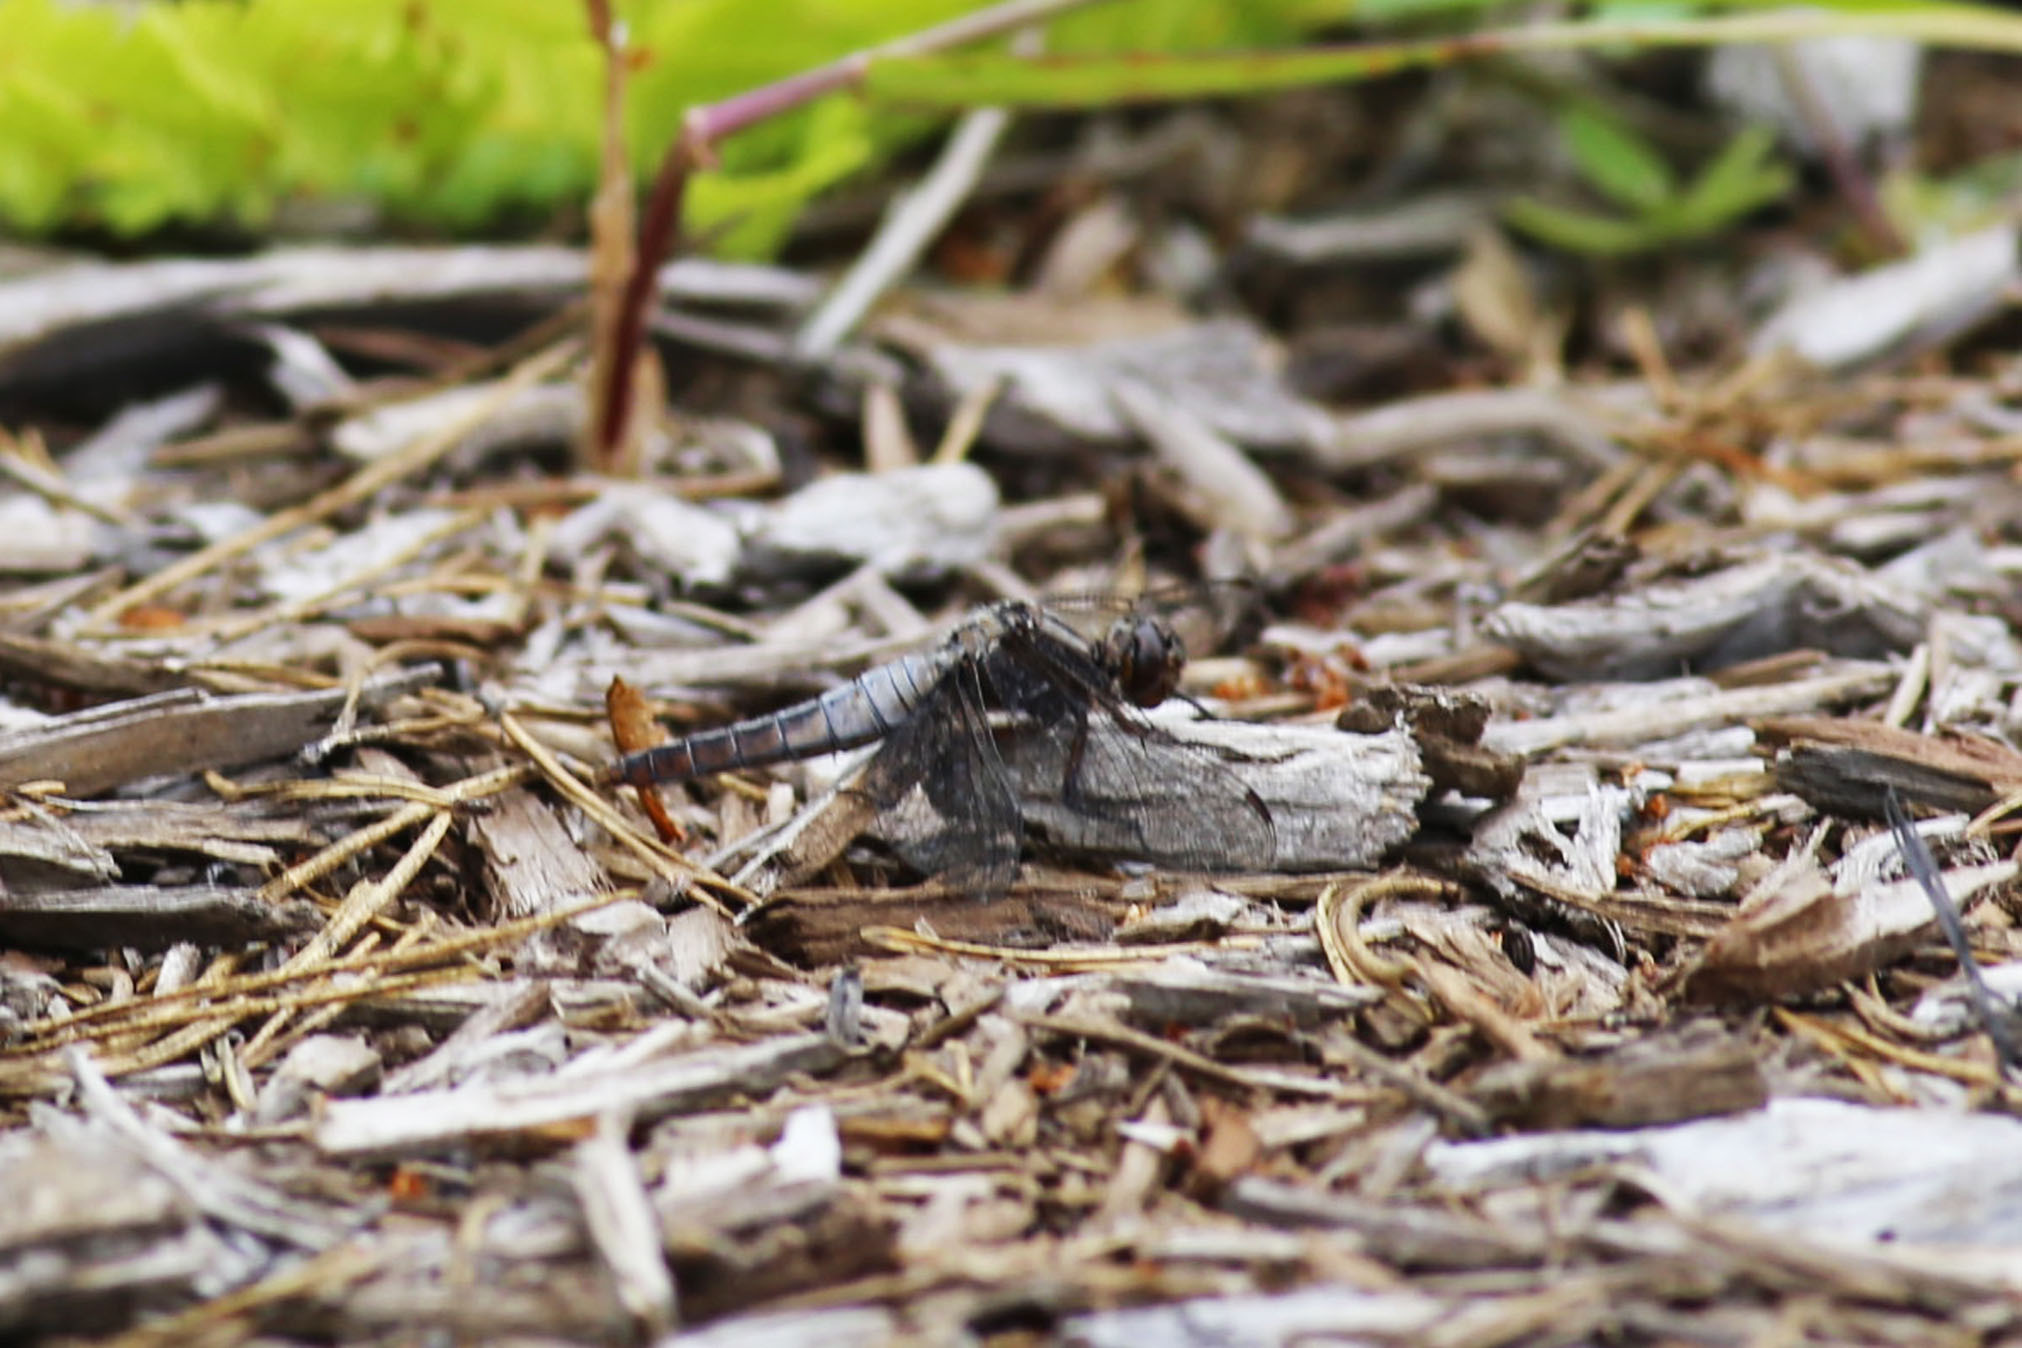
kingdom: Animalia
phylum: Arthropoda
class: Insecta
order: Odonata
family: Libellulidae
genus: Ladona
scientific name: Ladona julia
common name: Chalk-fronted corporal
